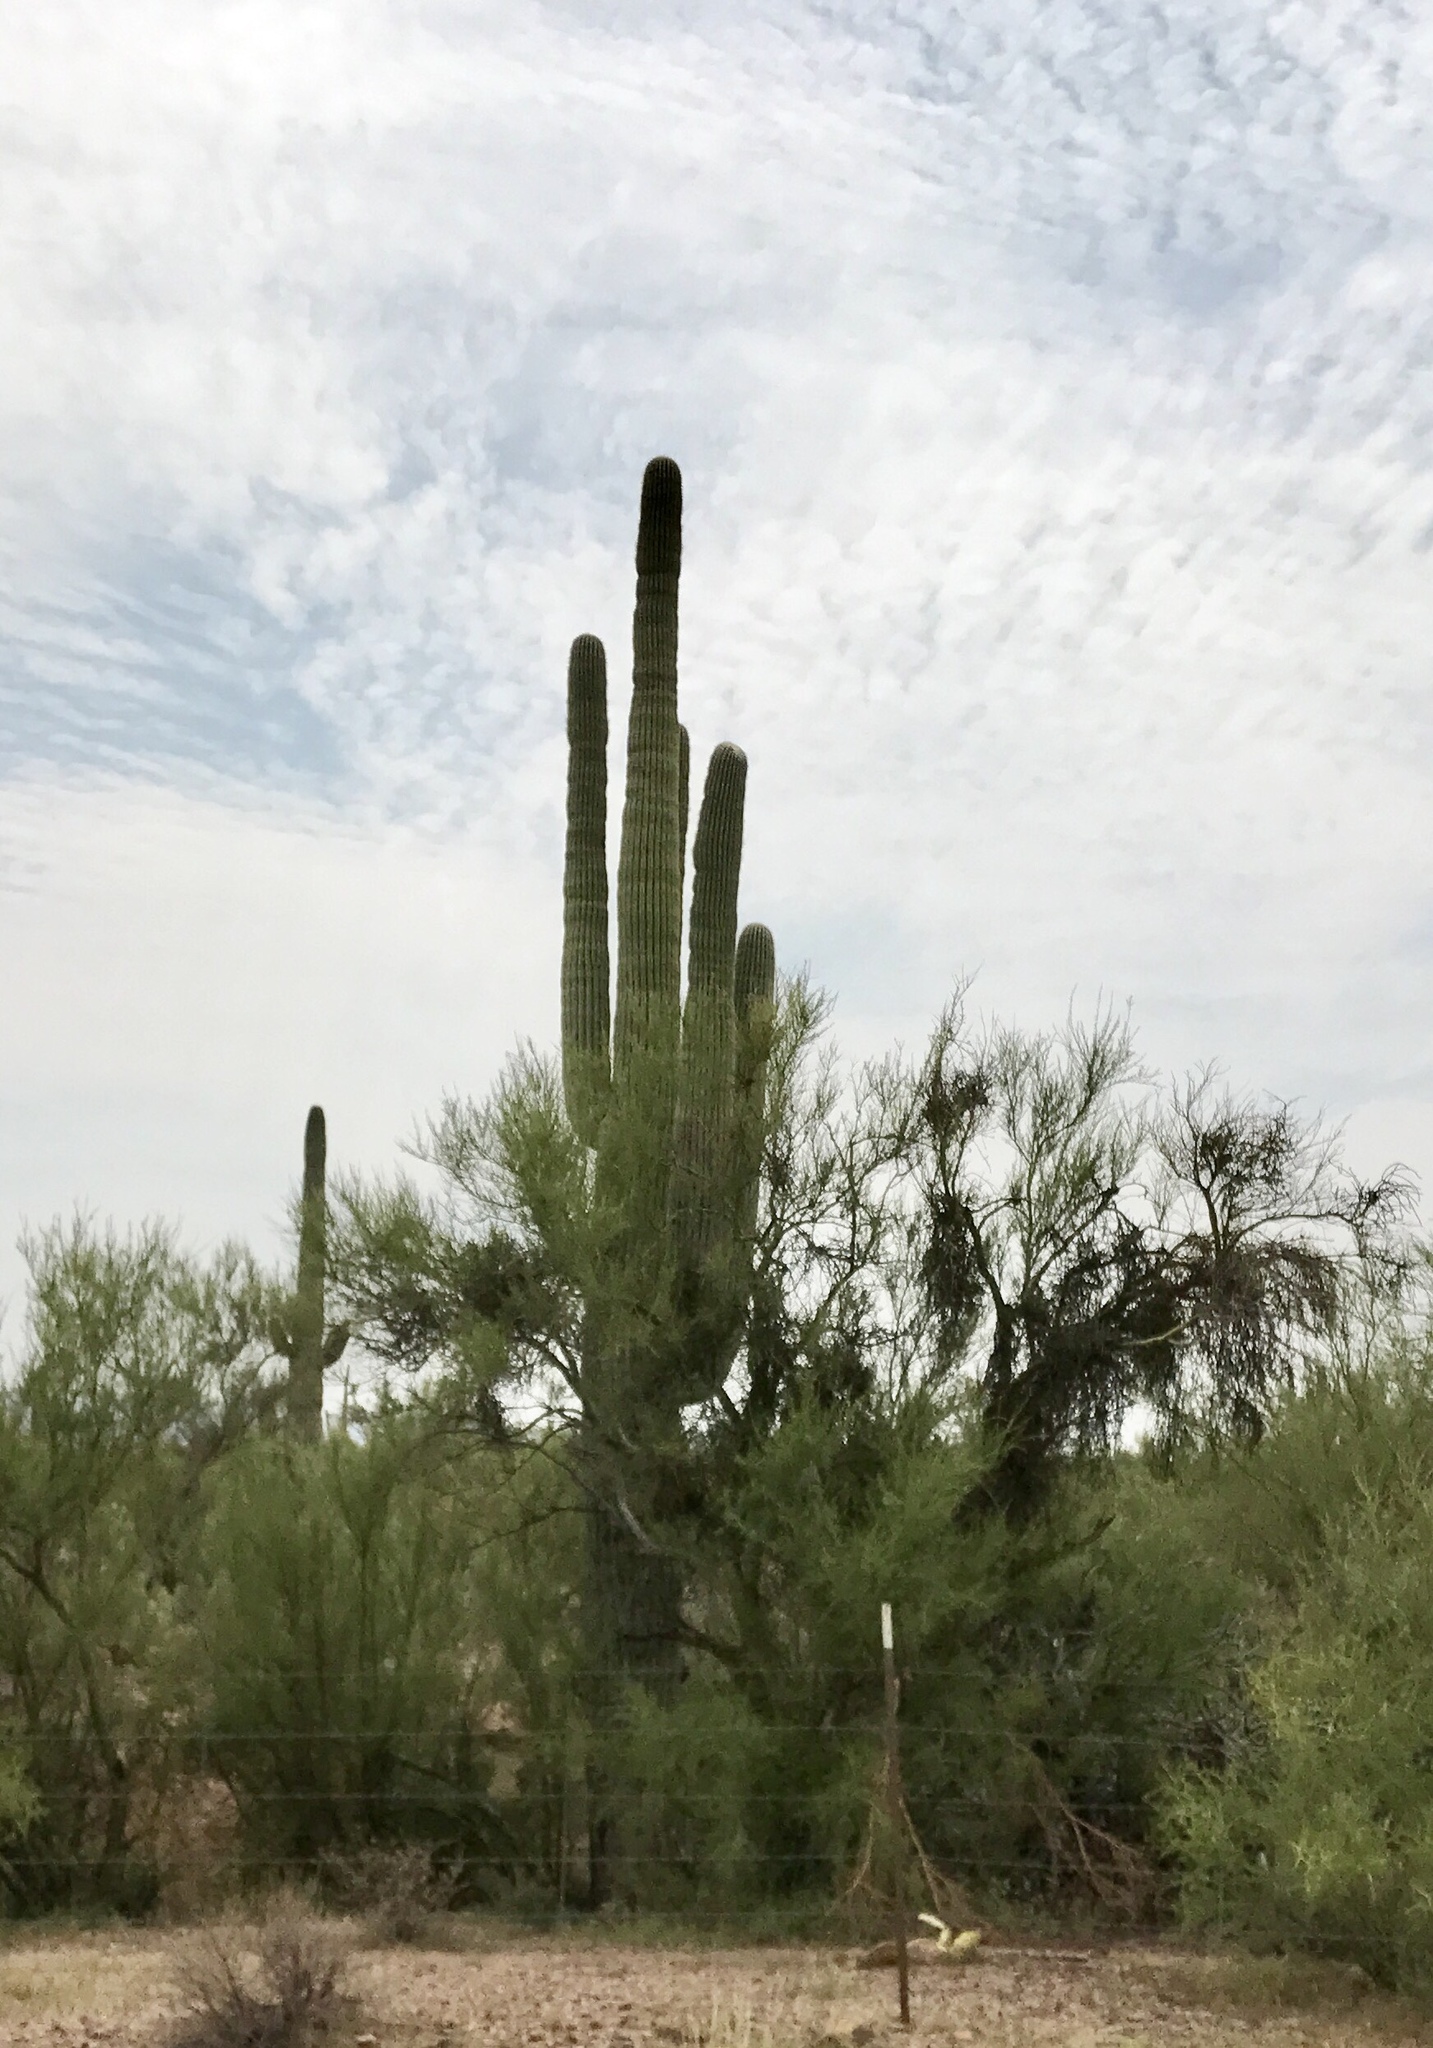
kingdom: Plantae
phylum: Tracheophyta
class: Magnoliopsida
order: Caryophyllales
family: Cactaceae
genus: Carnegiea
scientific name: Carnegiea gigantea
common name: Saguaro
